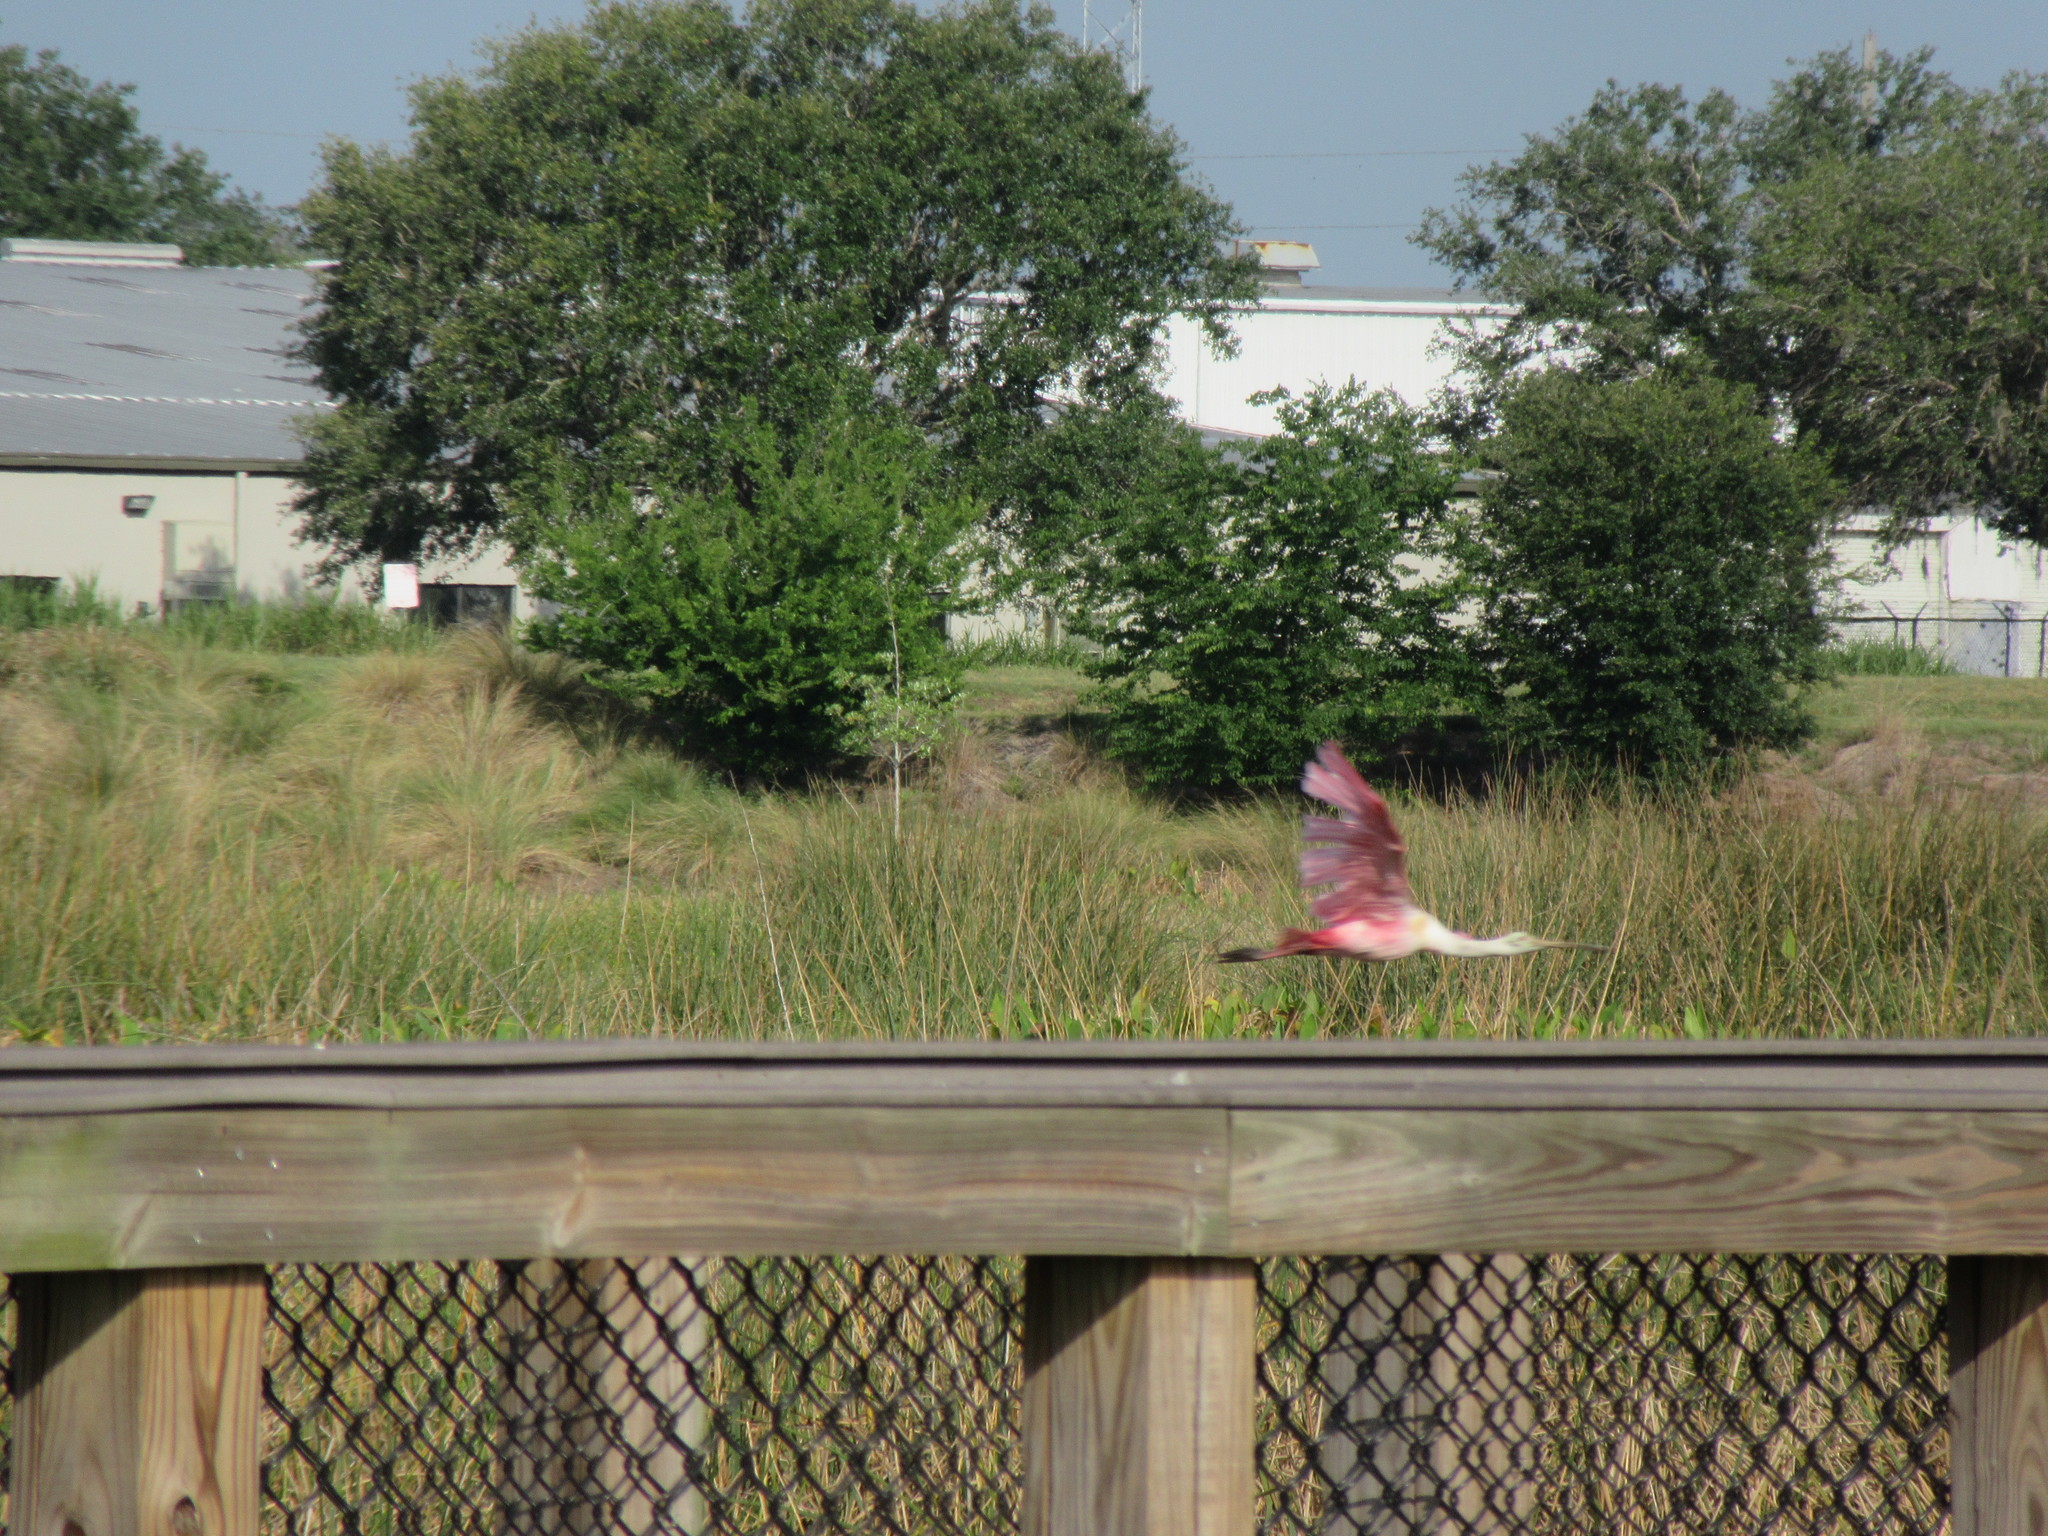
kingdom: Animalia
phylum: Chordata
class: Aves
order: Pelecaniformes
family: Threskiornithidae
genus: Platalea
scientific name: Platalea ajaja
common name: Roseate spoonbill
